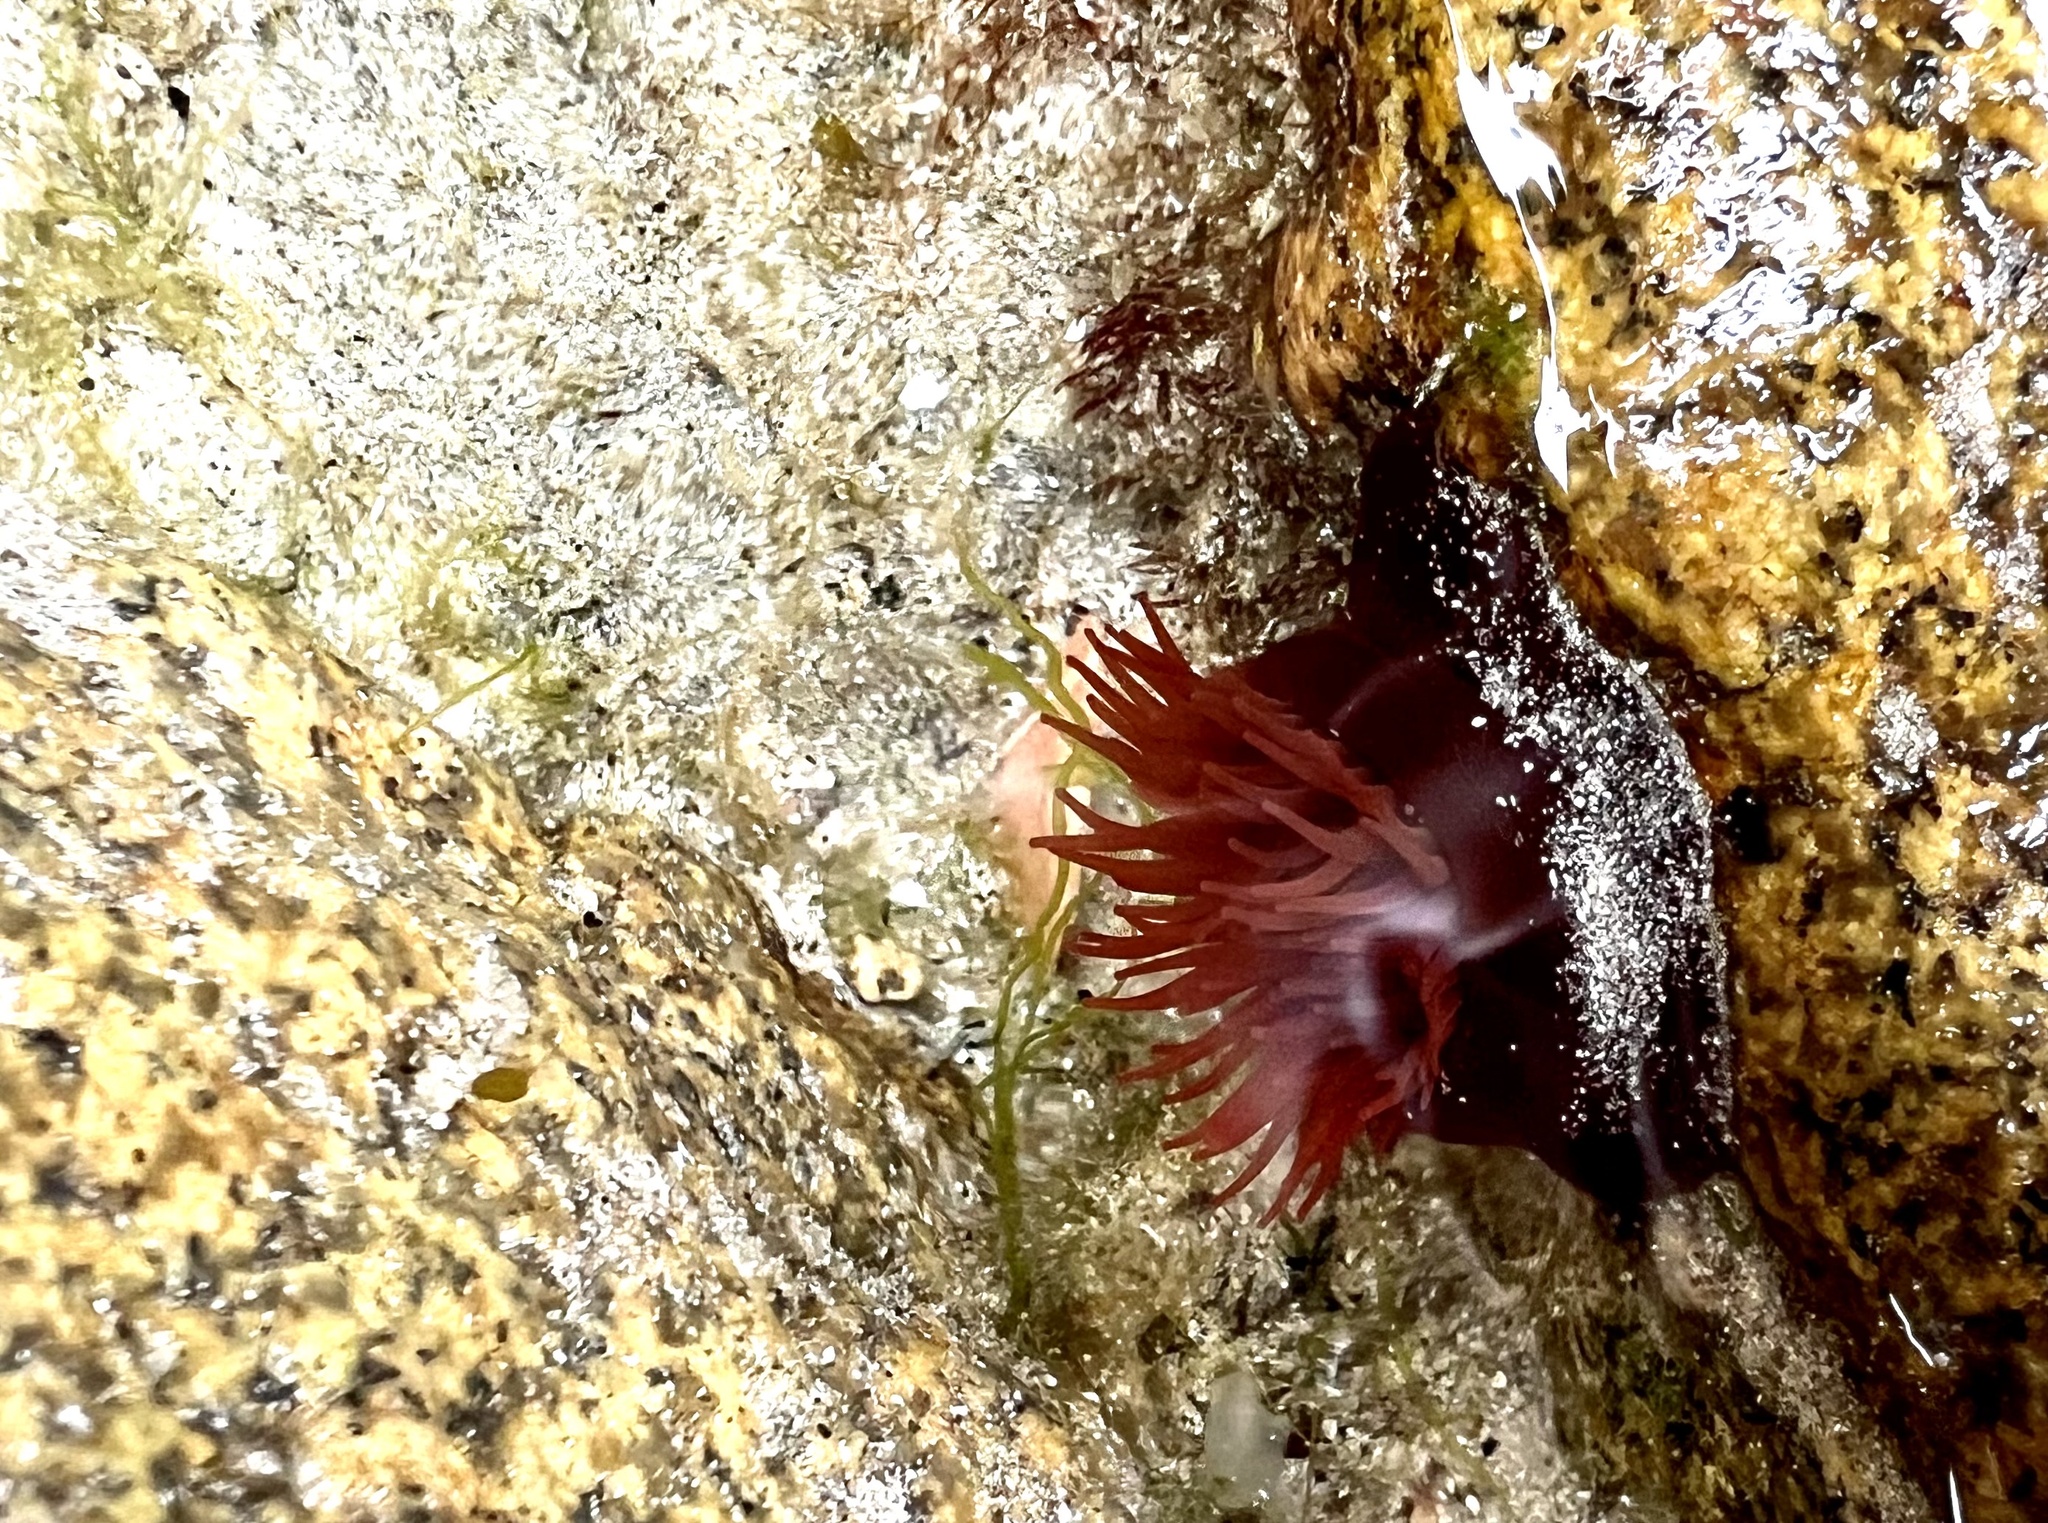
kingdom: Animalia
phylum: Cnidaria
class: Anthozoa
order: Actiniaria
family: Actiniidae
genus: Actinia
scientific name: Actinia equina
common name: Beadlet anemone
